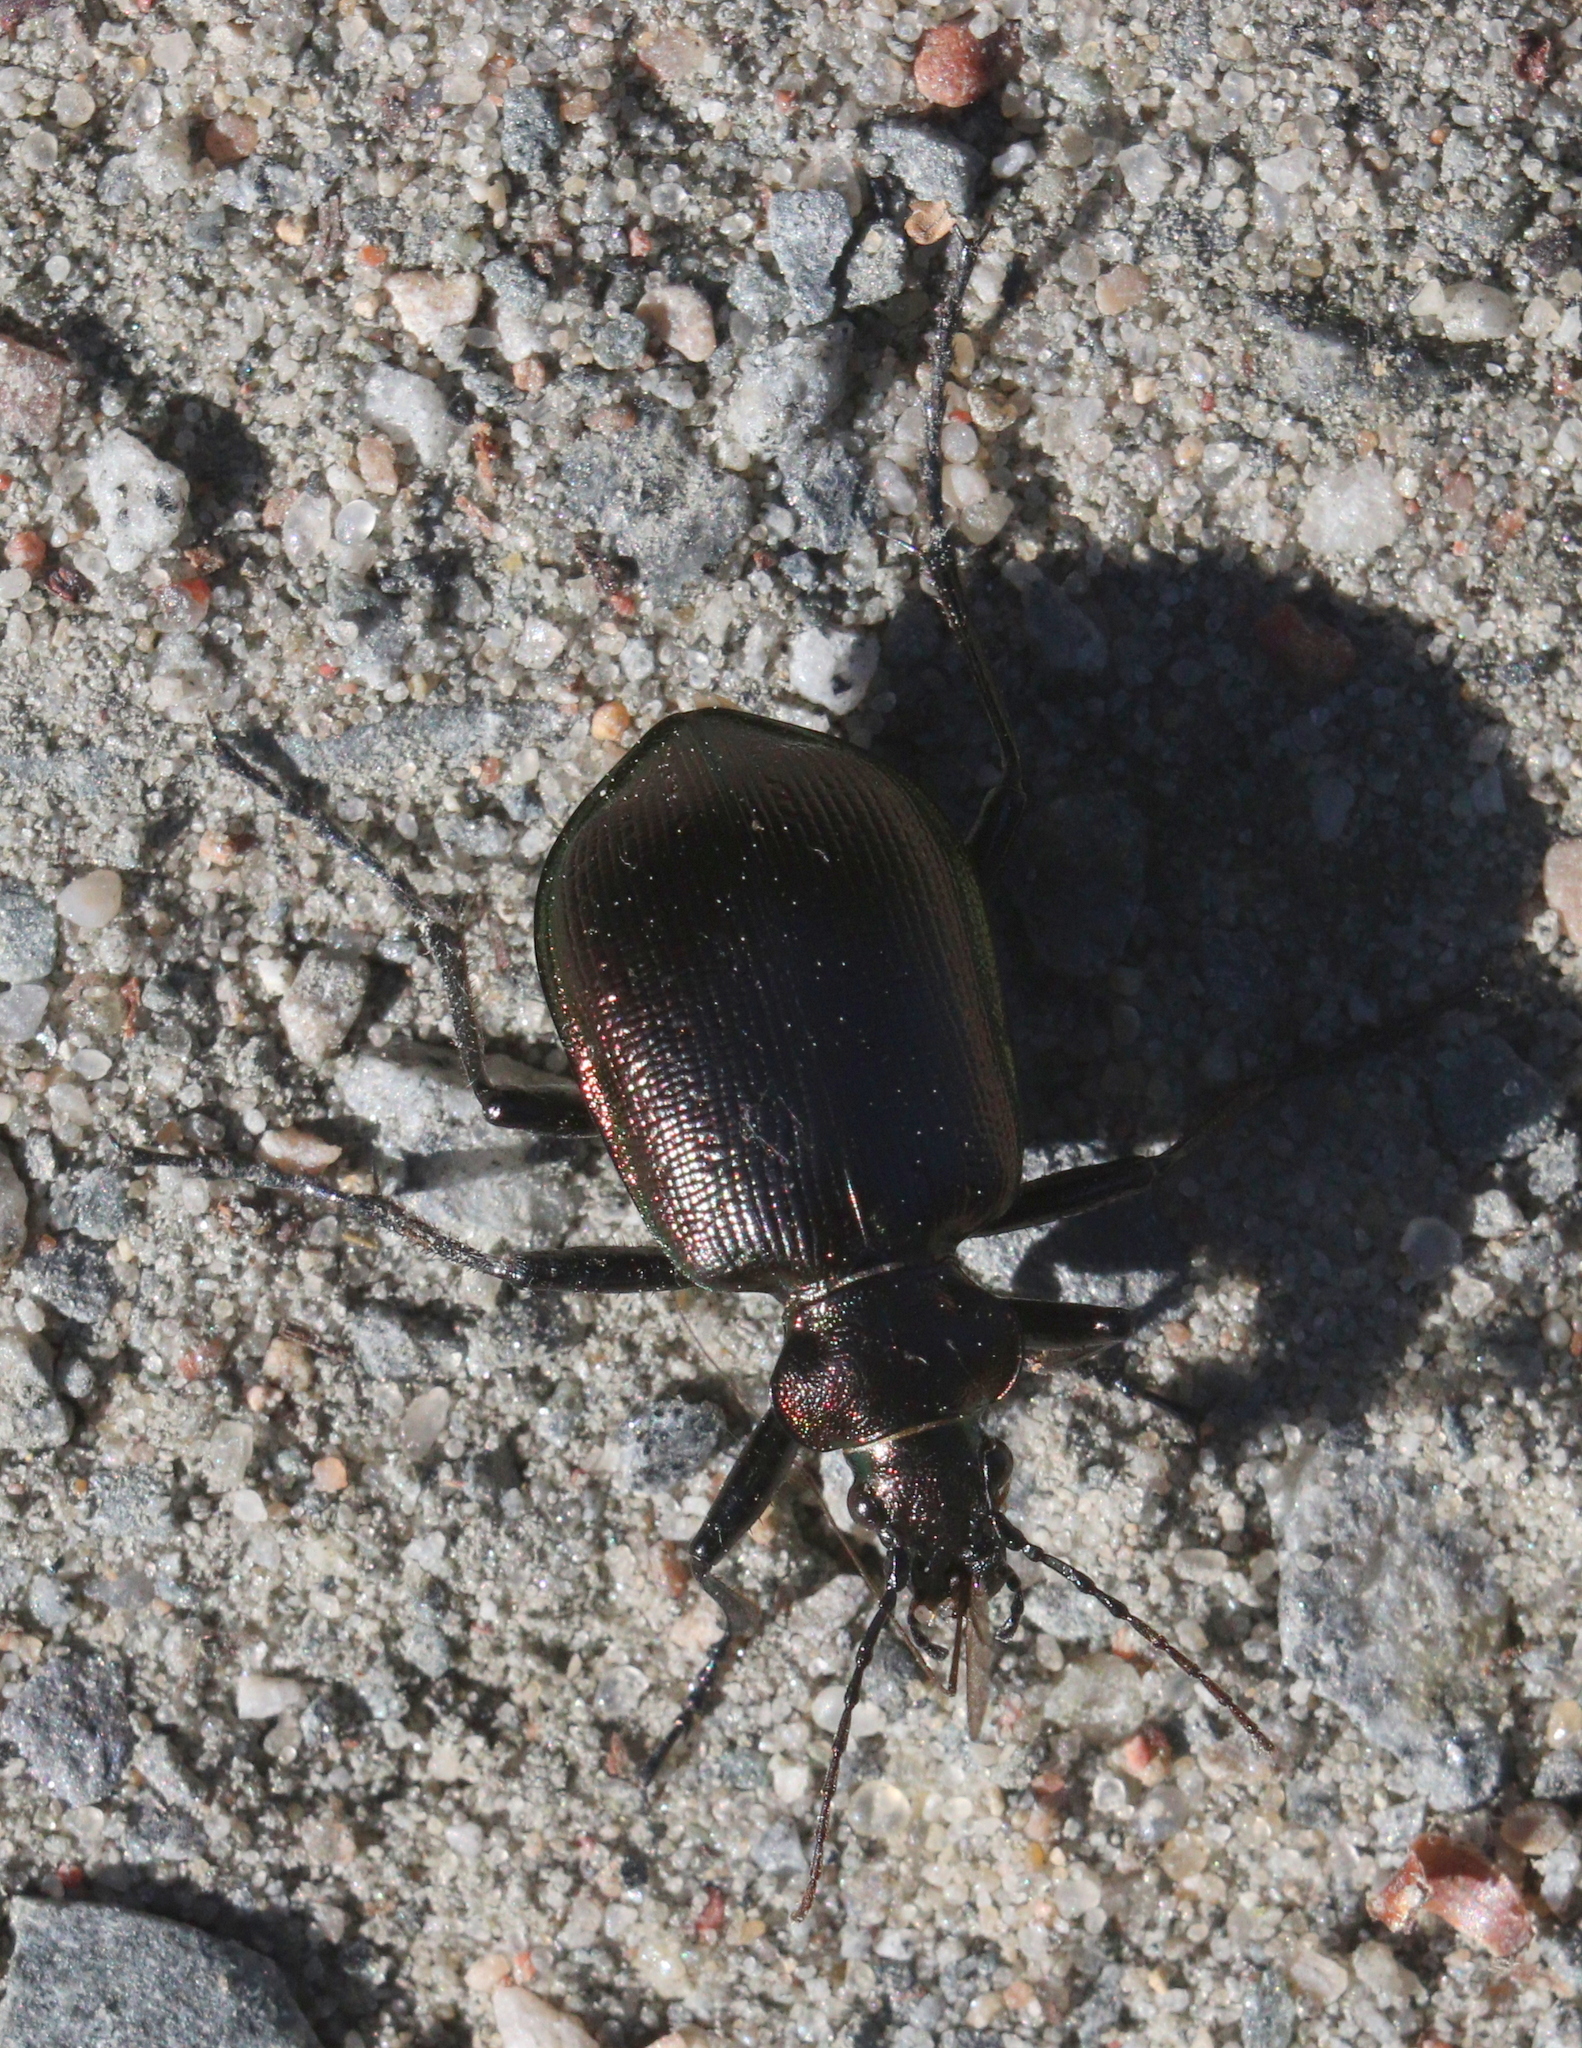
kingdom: Animalia
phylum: Arthropoda
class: Insecta
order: Coleoptera
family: Carabidae
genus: Calosoma
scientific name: Calosoma inquisitor
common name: Caterpillar-hunter
